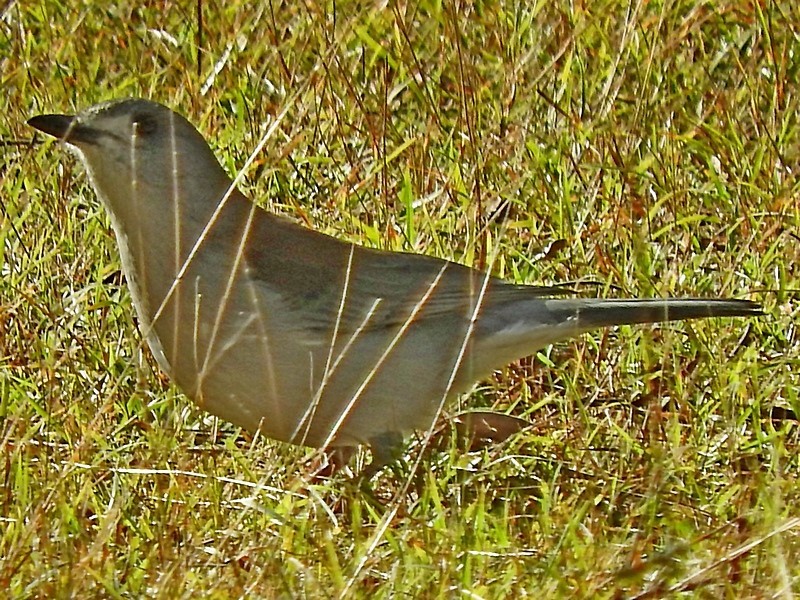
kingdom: Animalia
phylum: Chordata
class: Aves
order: Passeriformes
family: Pachycephalidae
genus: Colluricincla
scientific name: Colluricincla harmonica
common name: Grey shrikethrush
